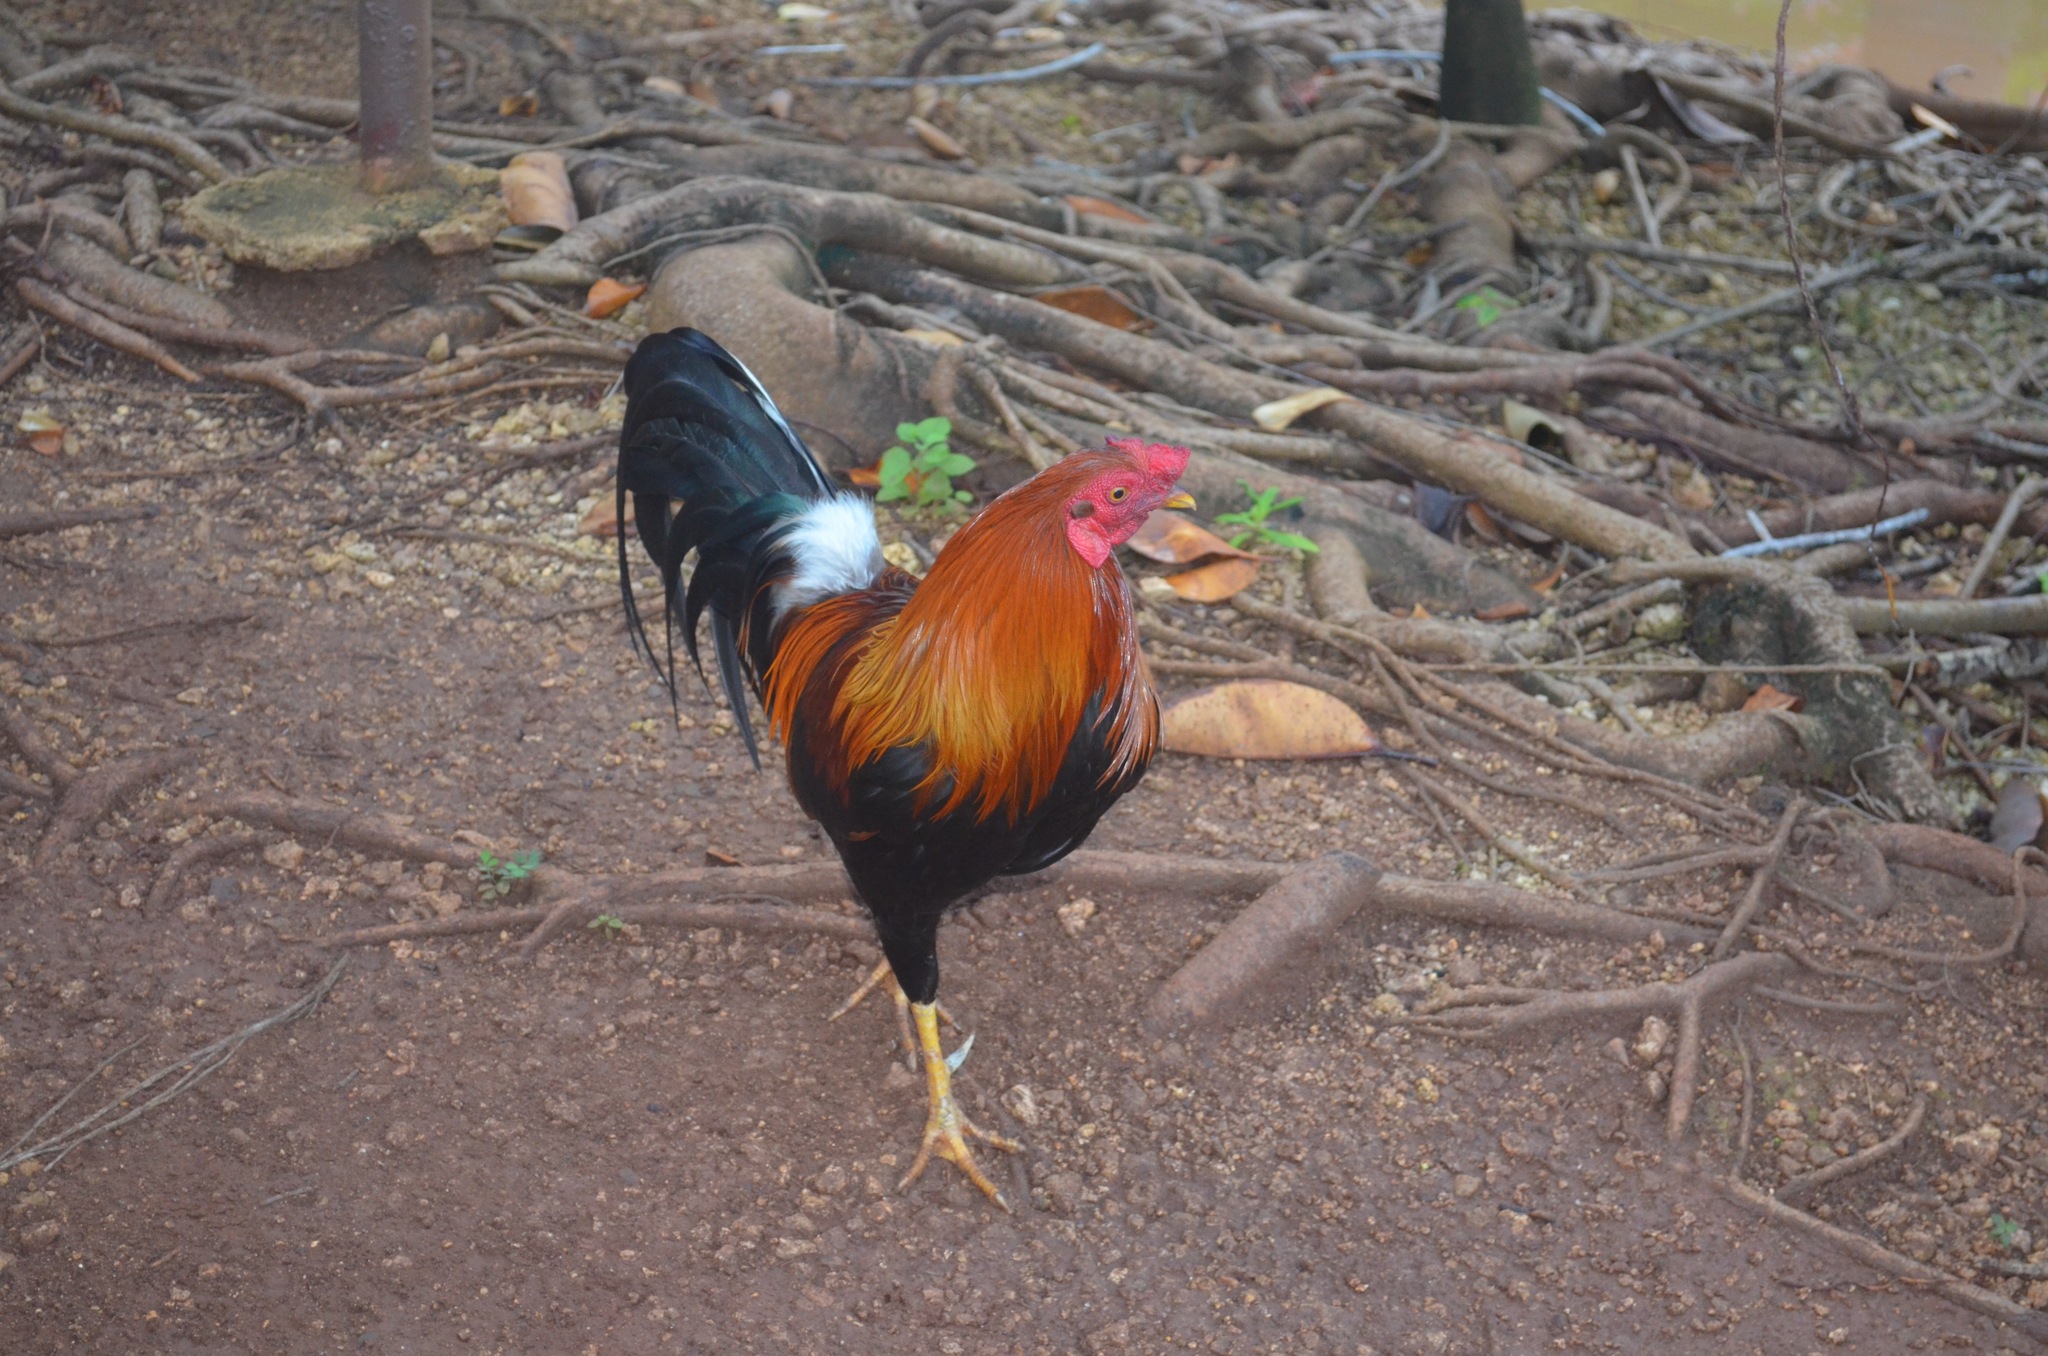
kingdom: Animalia
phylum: Chordata
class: Aves
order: Galliformes
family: Phasianidae
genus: Gallus
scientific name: Gallus gallus
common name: Red junglefowl
